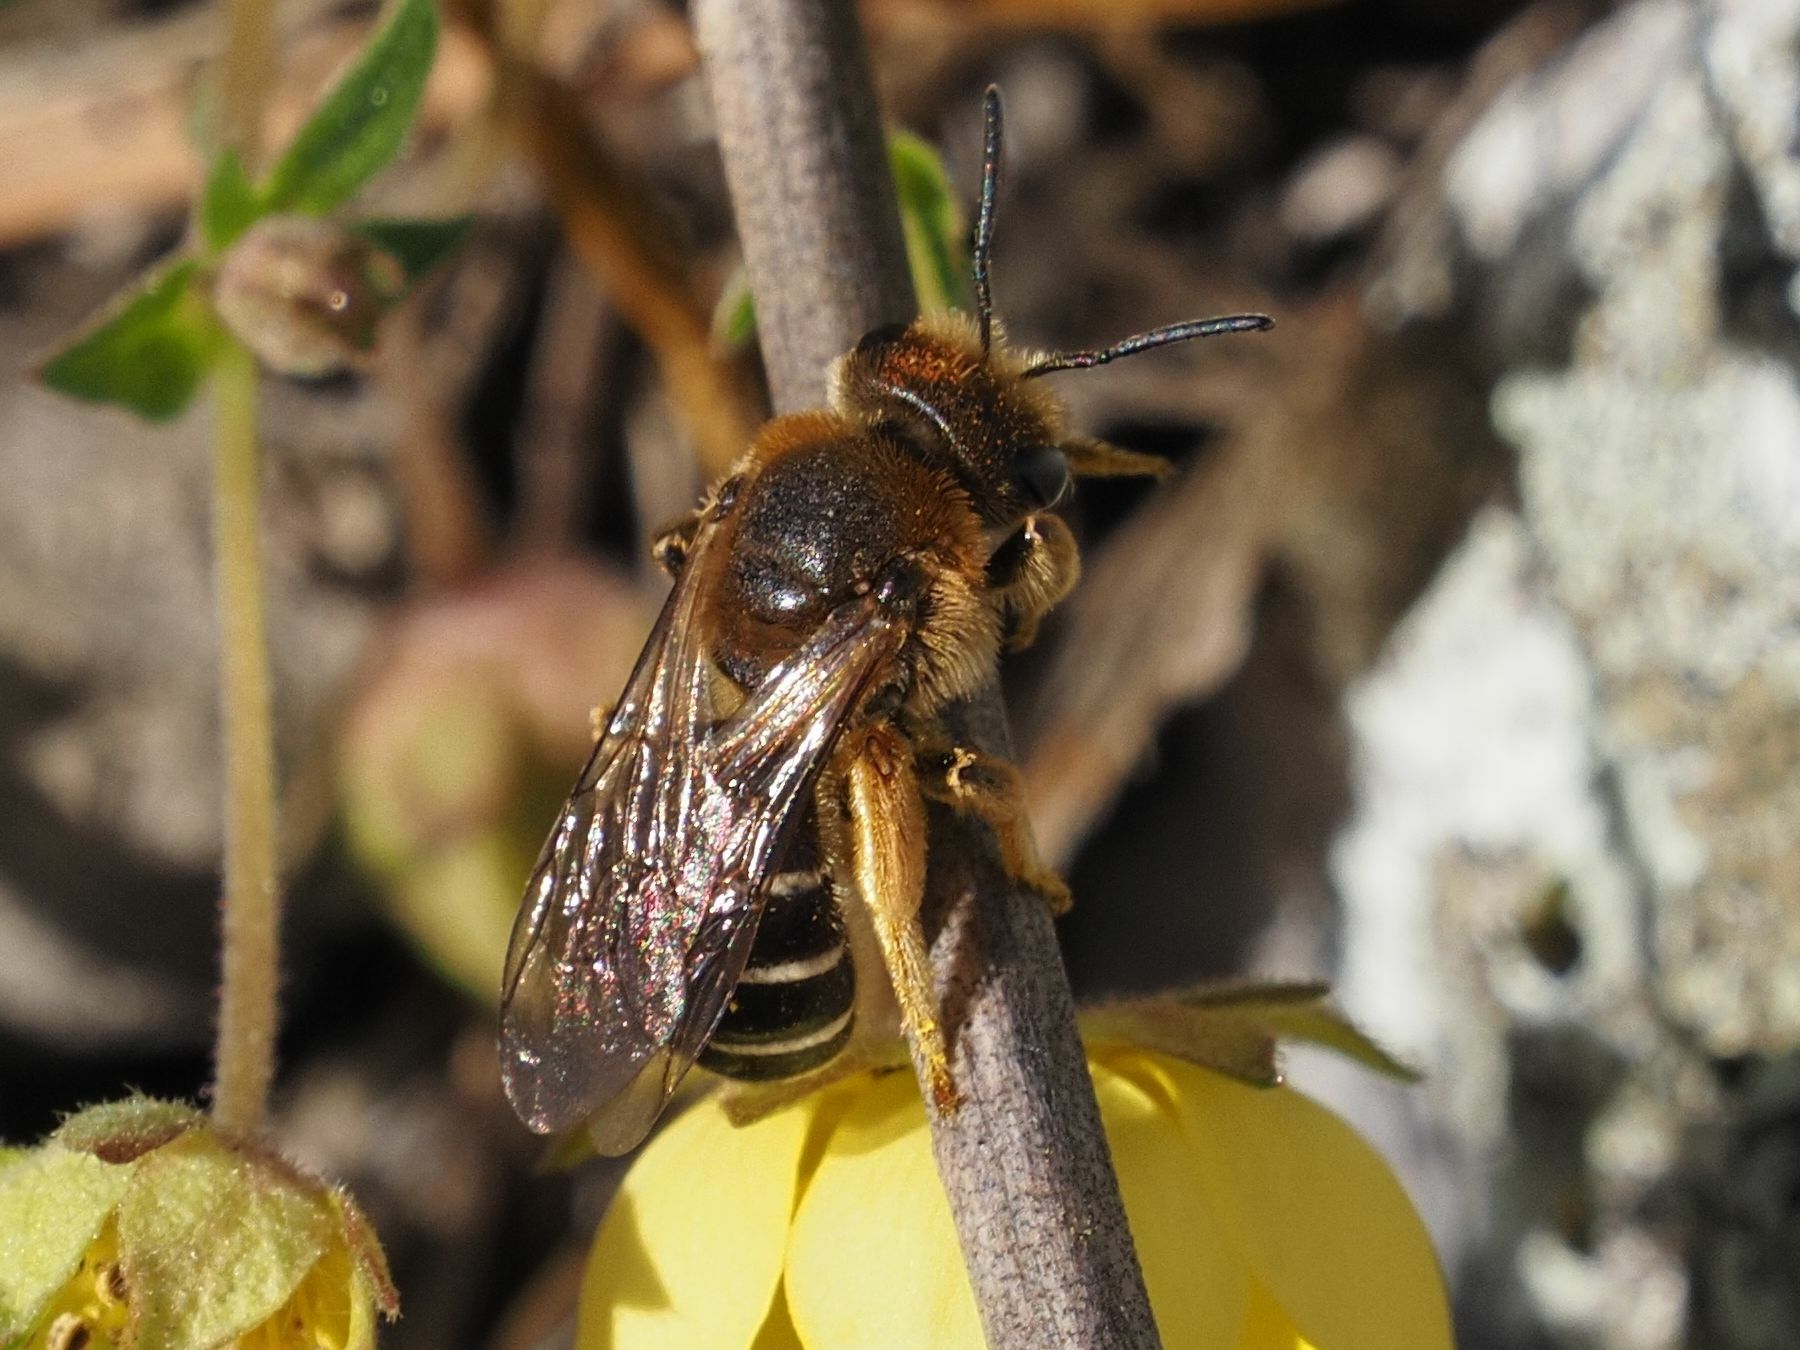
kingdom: Animalia
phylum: Arthropoda
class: Insecta
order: Hymenoptera
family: Halictidae
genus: Halictus
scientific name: Halictus rubicundus
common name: Orange-legged furrow bee
